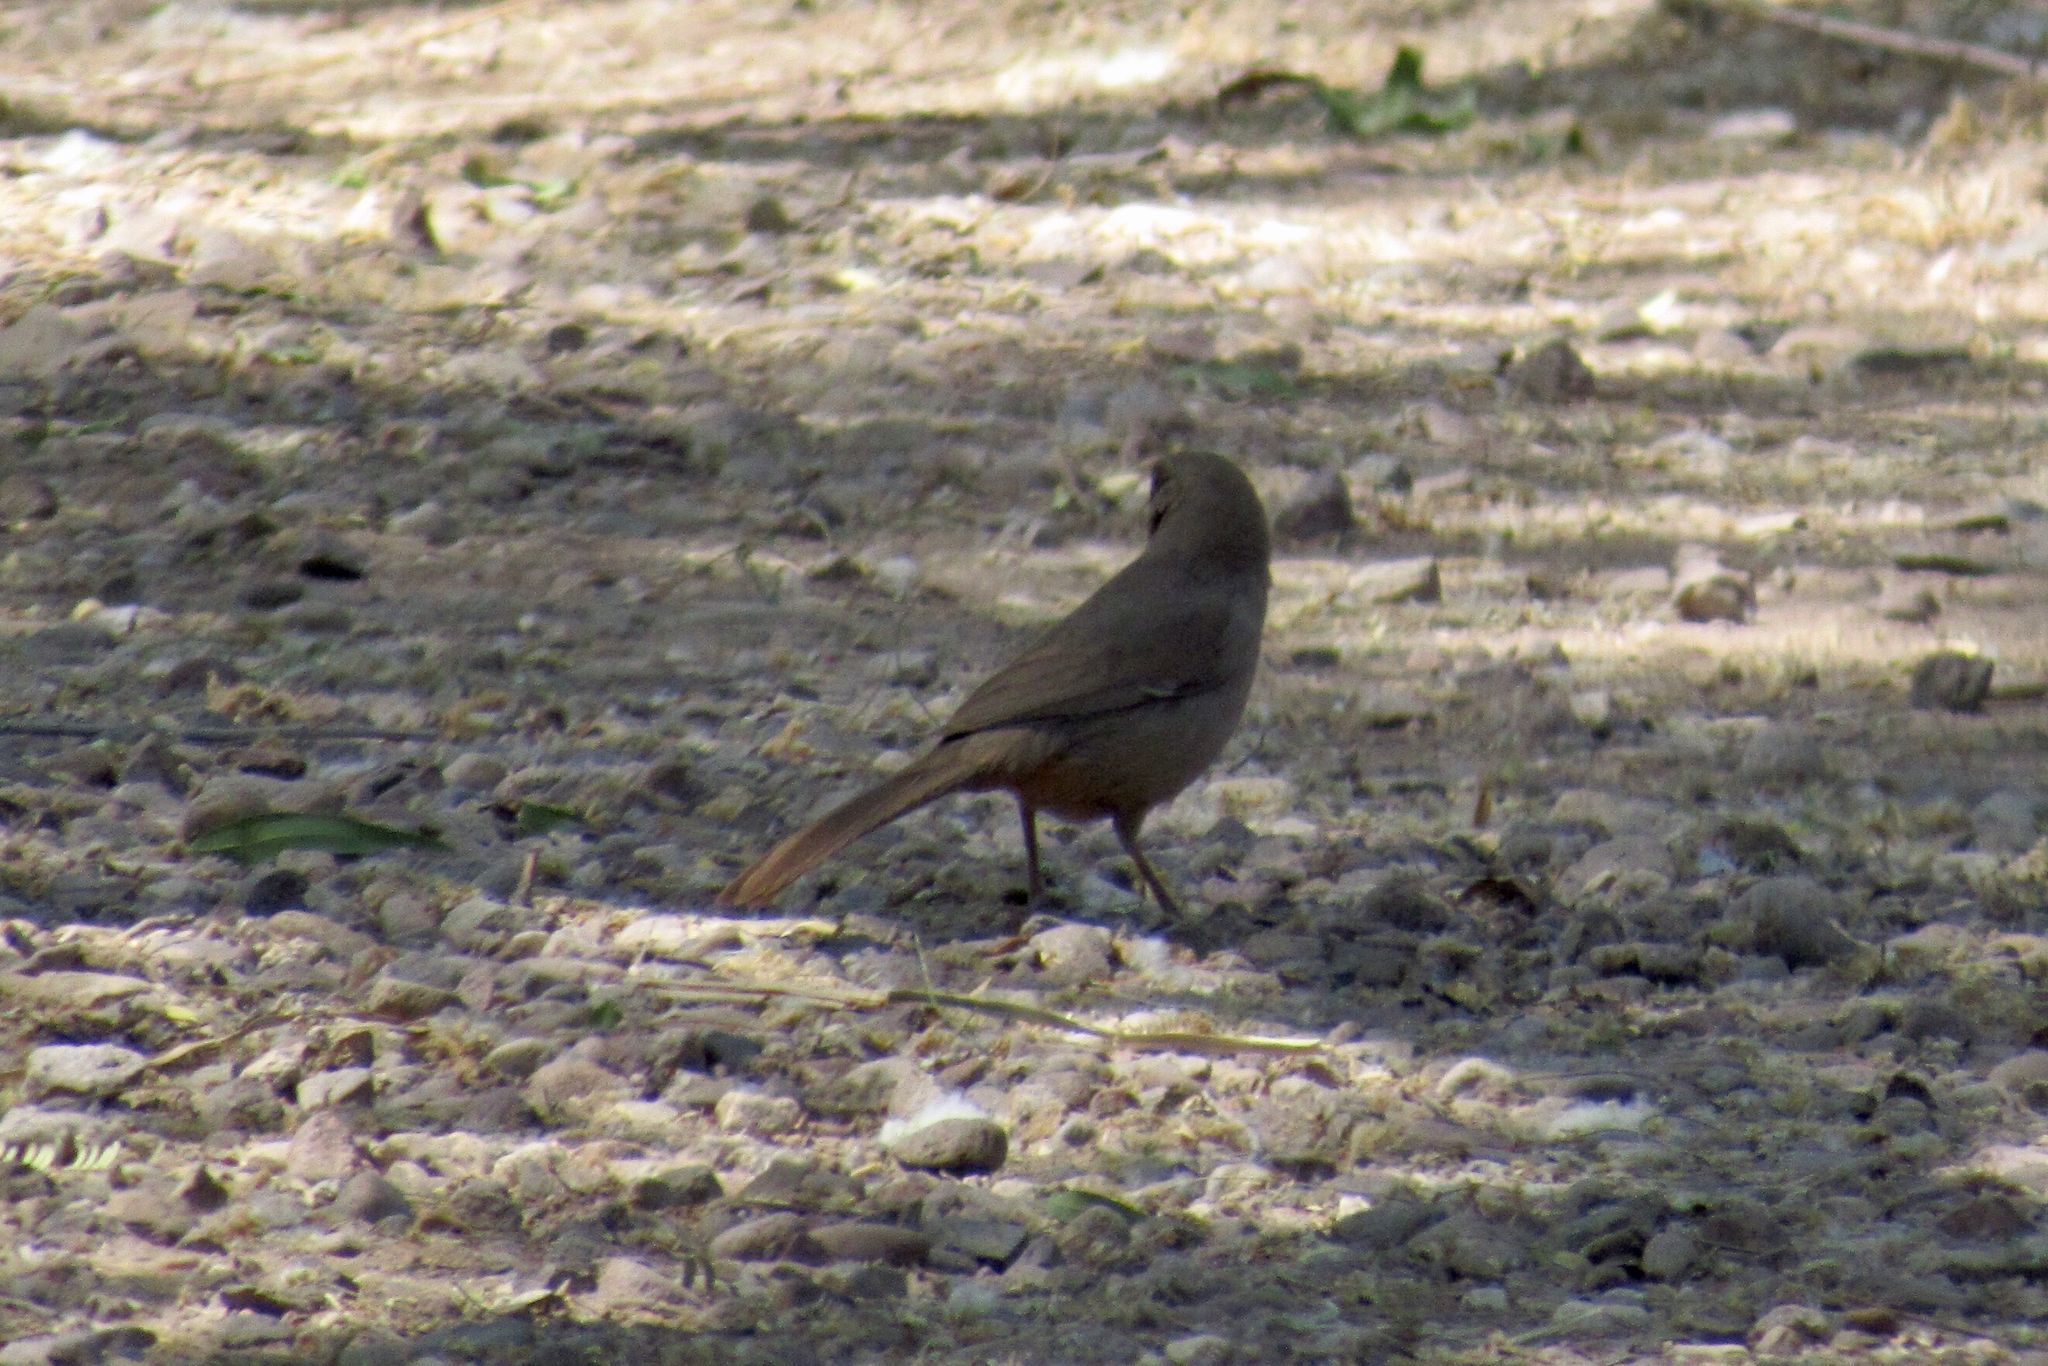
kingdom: Animalia
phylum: Chordata
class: Aves
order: Passeriformes
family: Passerellidae
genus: Melozone
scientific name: Melozone aberti
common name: Abert's towhee
